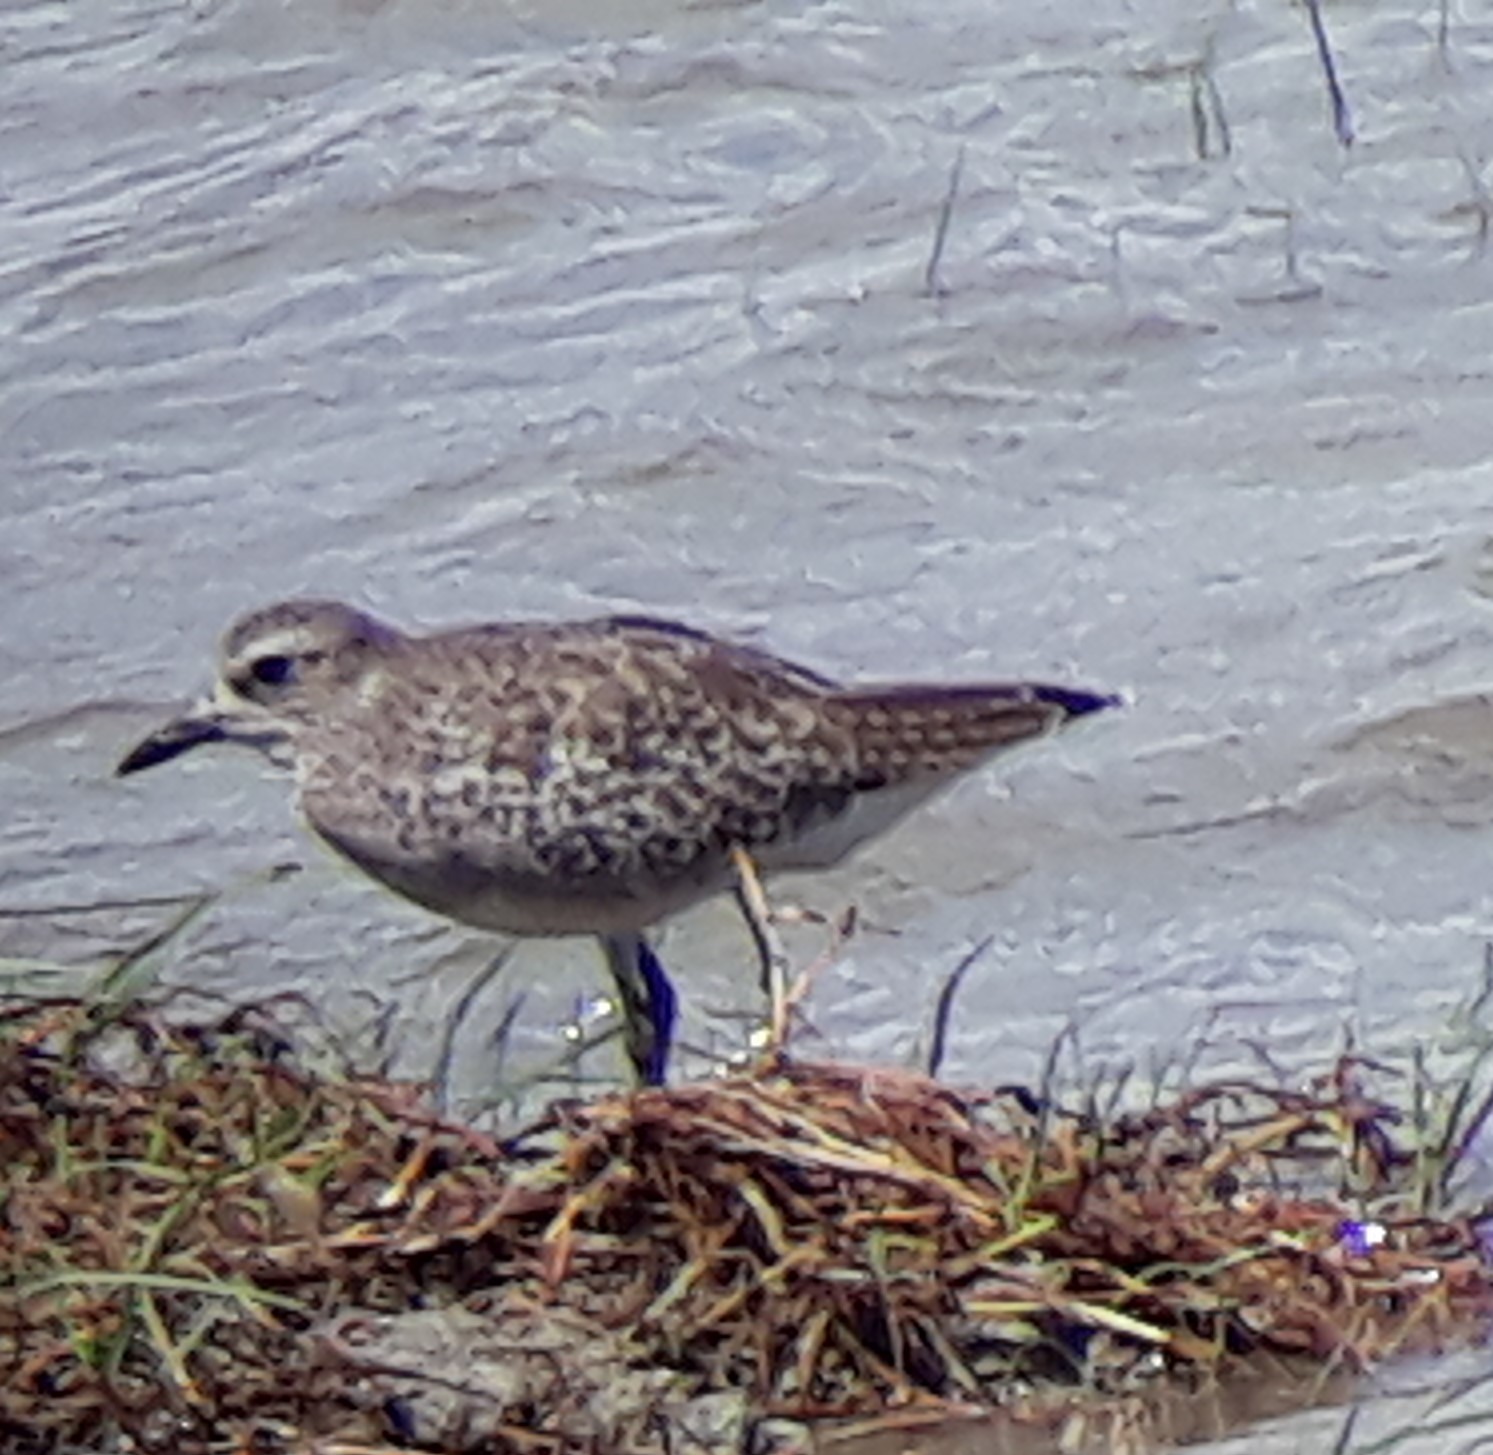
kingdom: Animalia
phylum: Chordata
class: Aves
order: Charadriiformes
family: Charadriidae
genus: Pluvialis
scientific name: Pluvialis squatarola
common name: Grey plover
